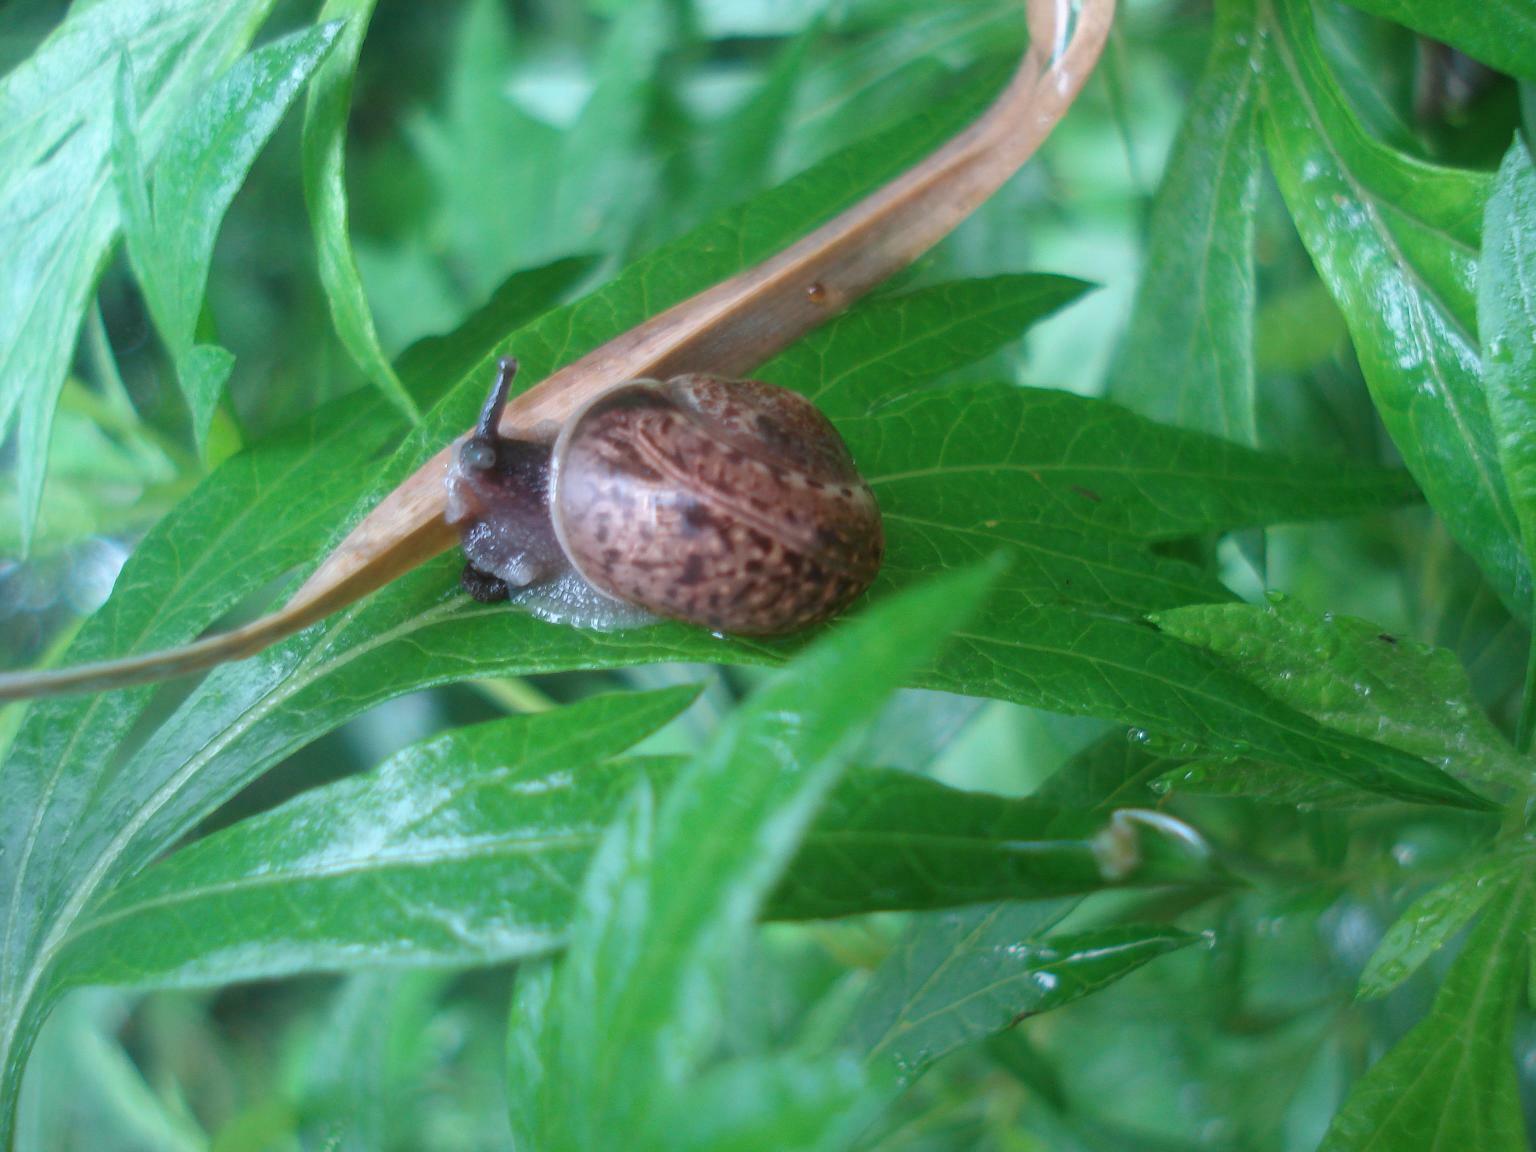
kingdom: Animalia
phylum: Mollusca
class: Gastropoda
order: Stylommatophora
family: Camaenidae
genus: Fruticicola
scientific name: Fruticicola fruticum
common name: Bush snail
